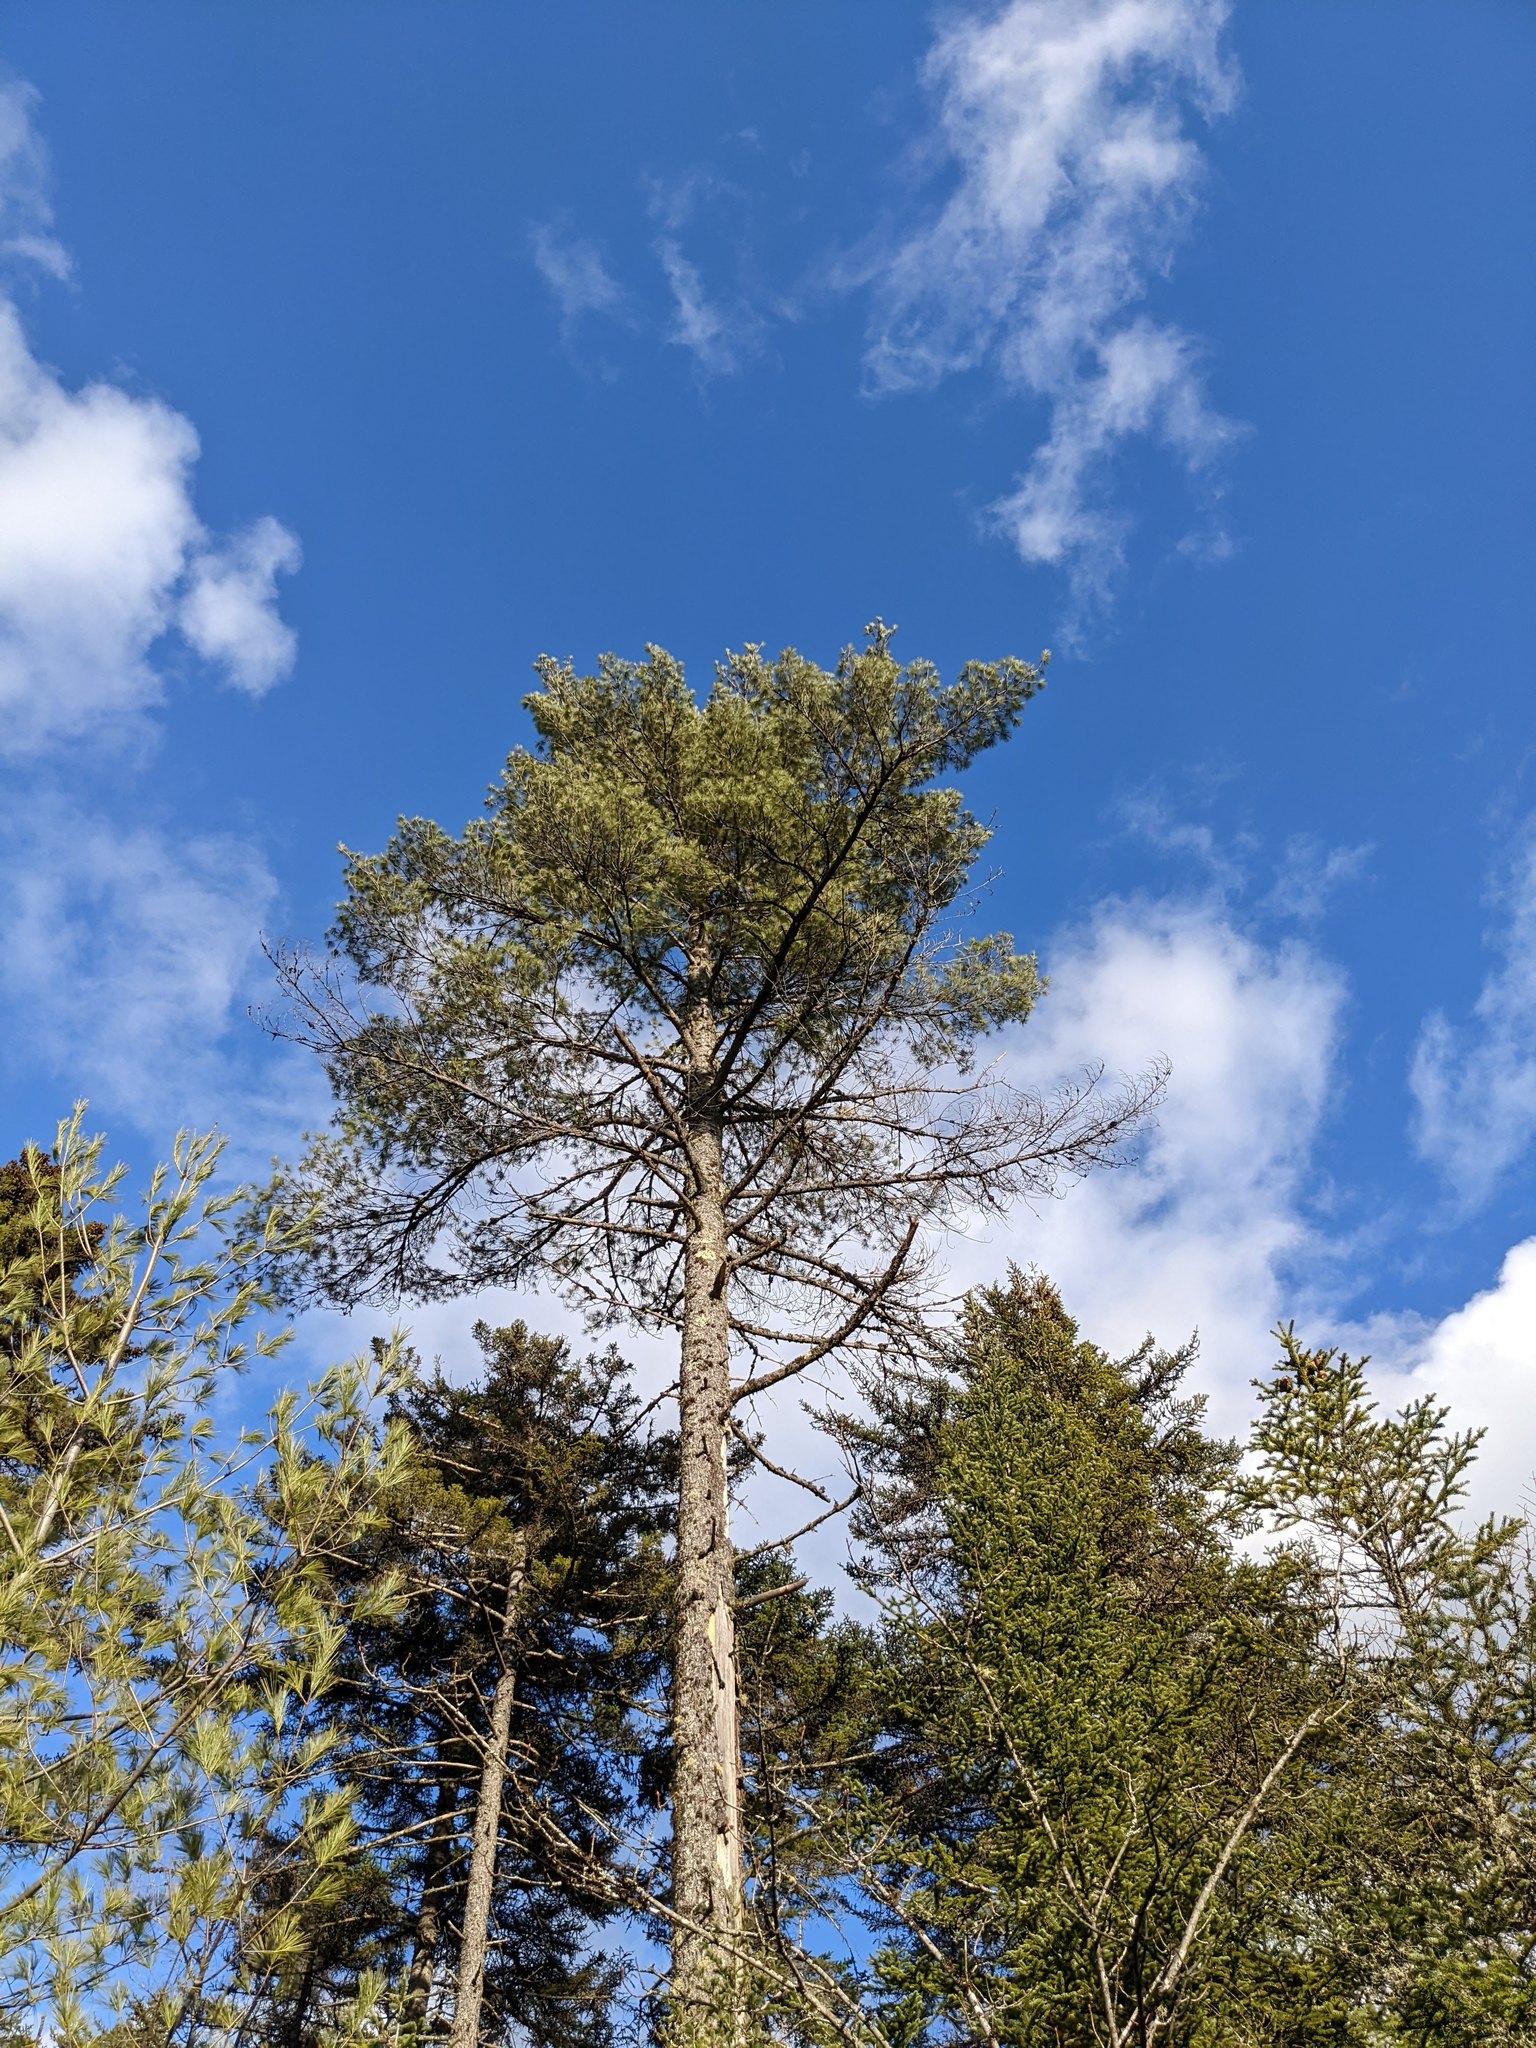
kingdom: Plantae
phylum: Tracheophyta
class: Pinopsida
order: Pinales
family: Pinaceae
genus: Pinus
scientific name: Pinus strobus
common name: Weymouth pine
